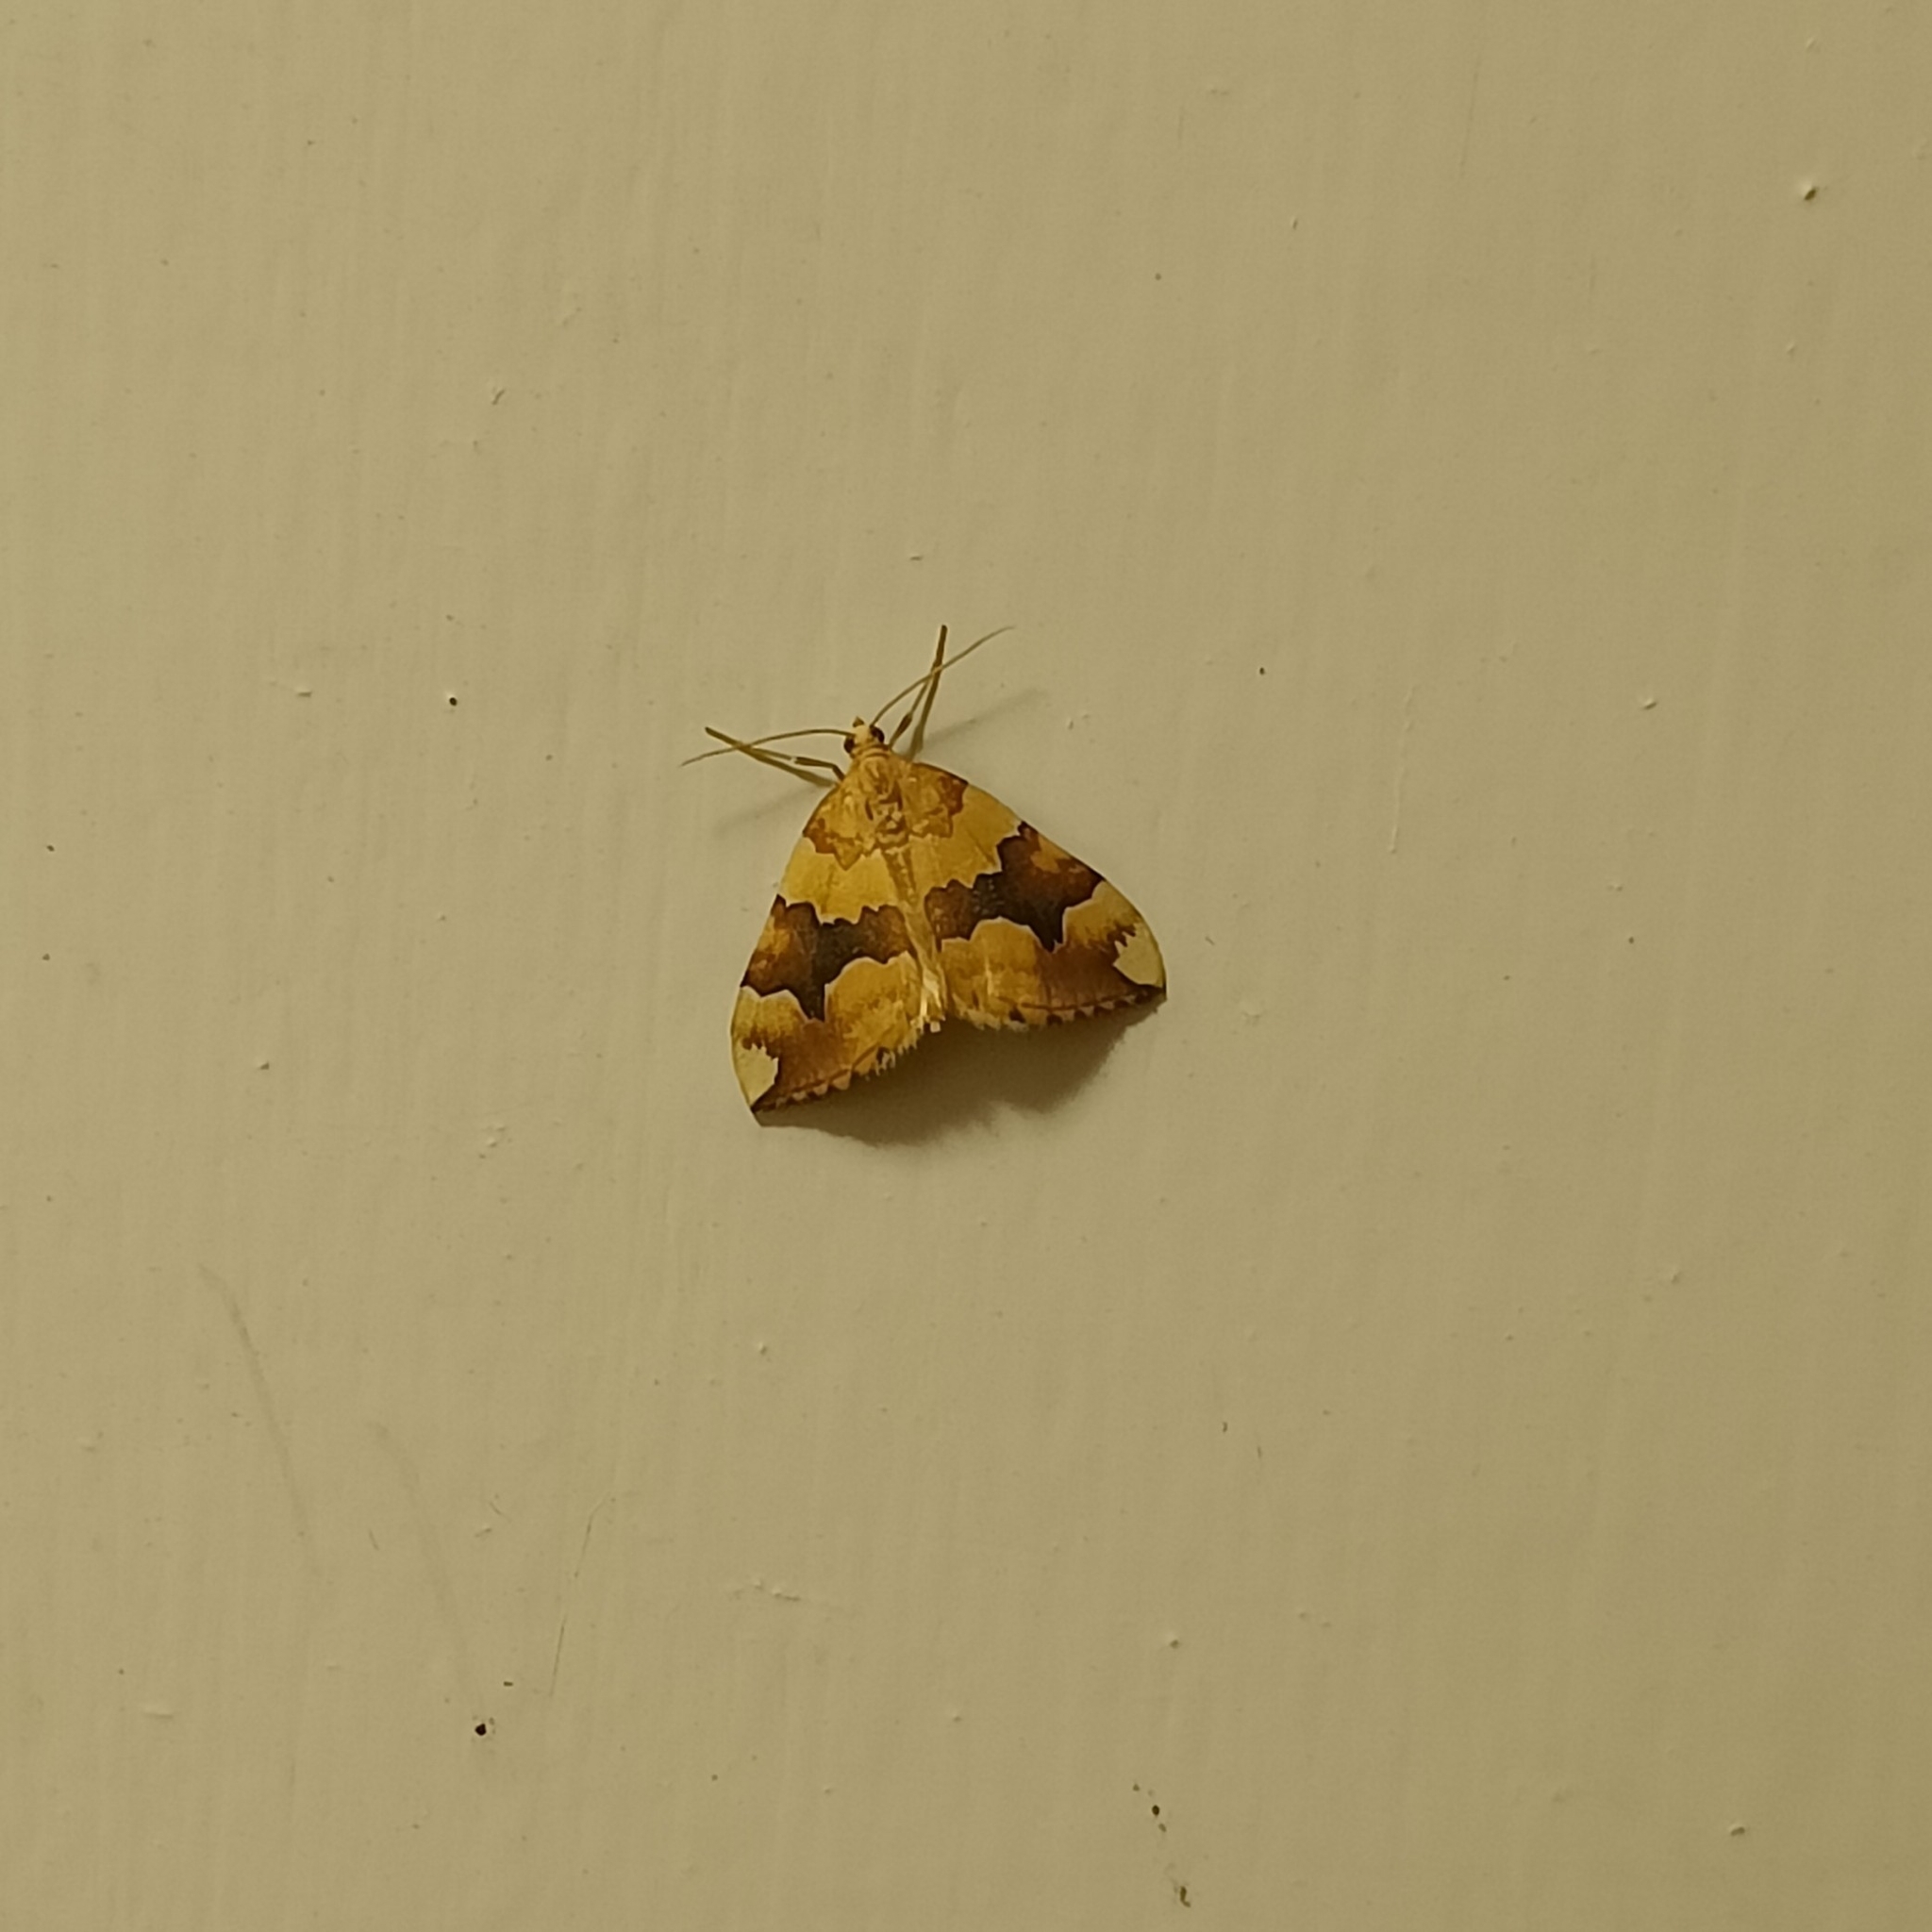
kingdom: Animalia
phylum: Arthropoda
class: Insecta
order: Lepidoptera
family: Geometridae
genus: Cidaria
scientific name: Cidaria fulvata
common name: Barred yellow
